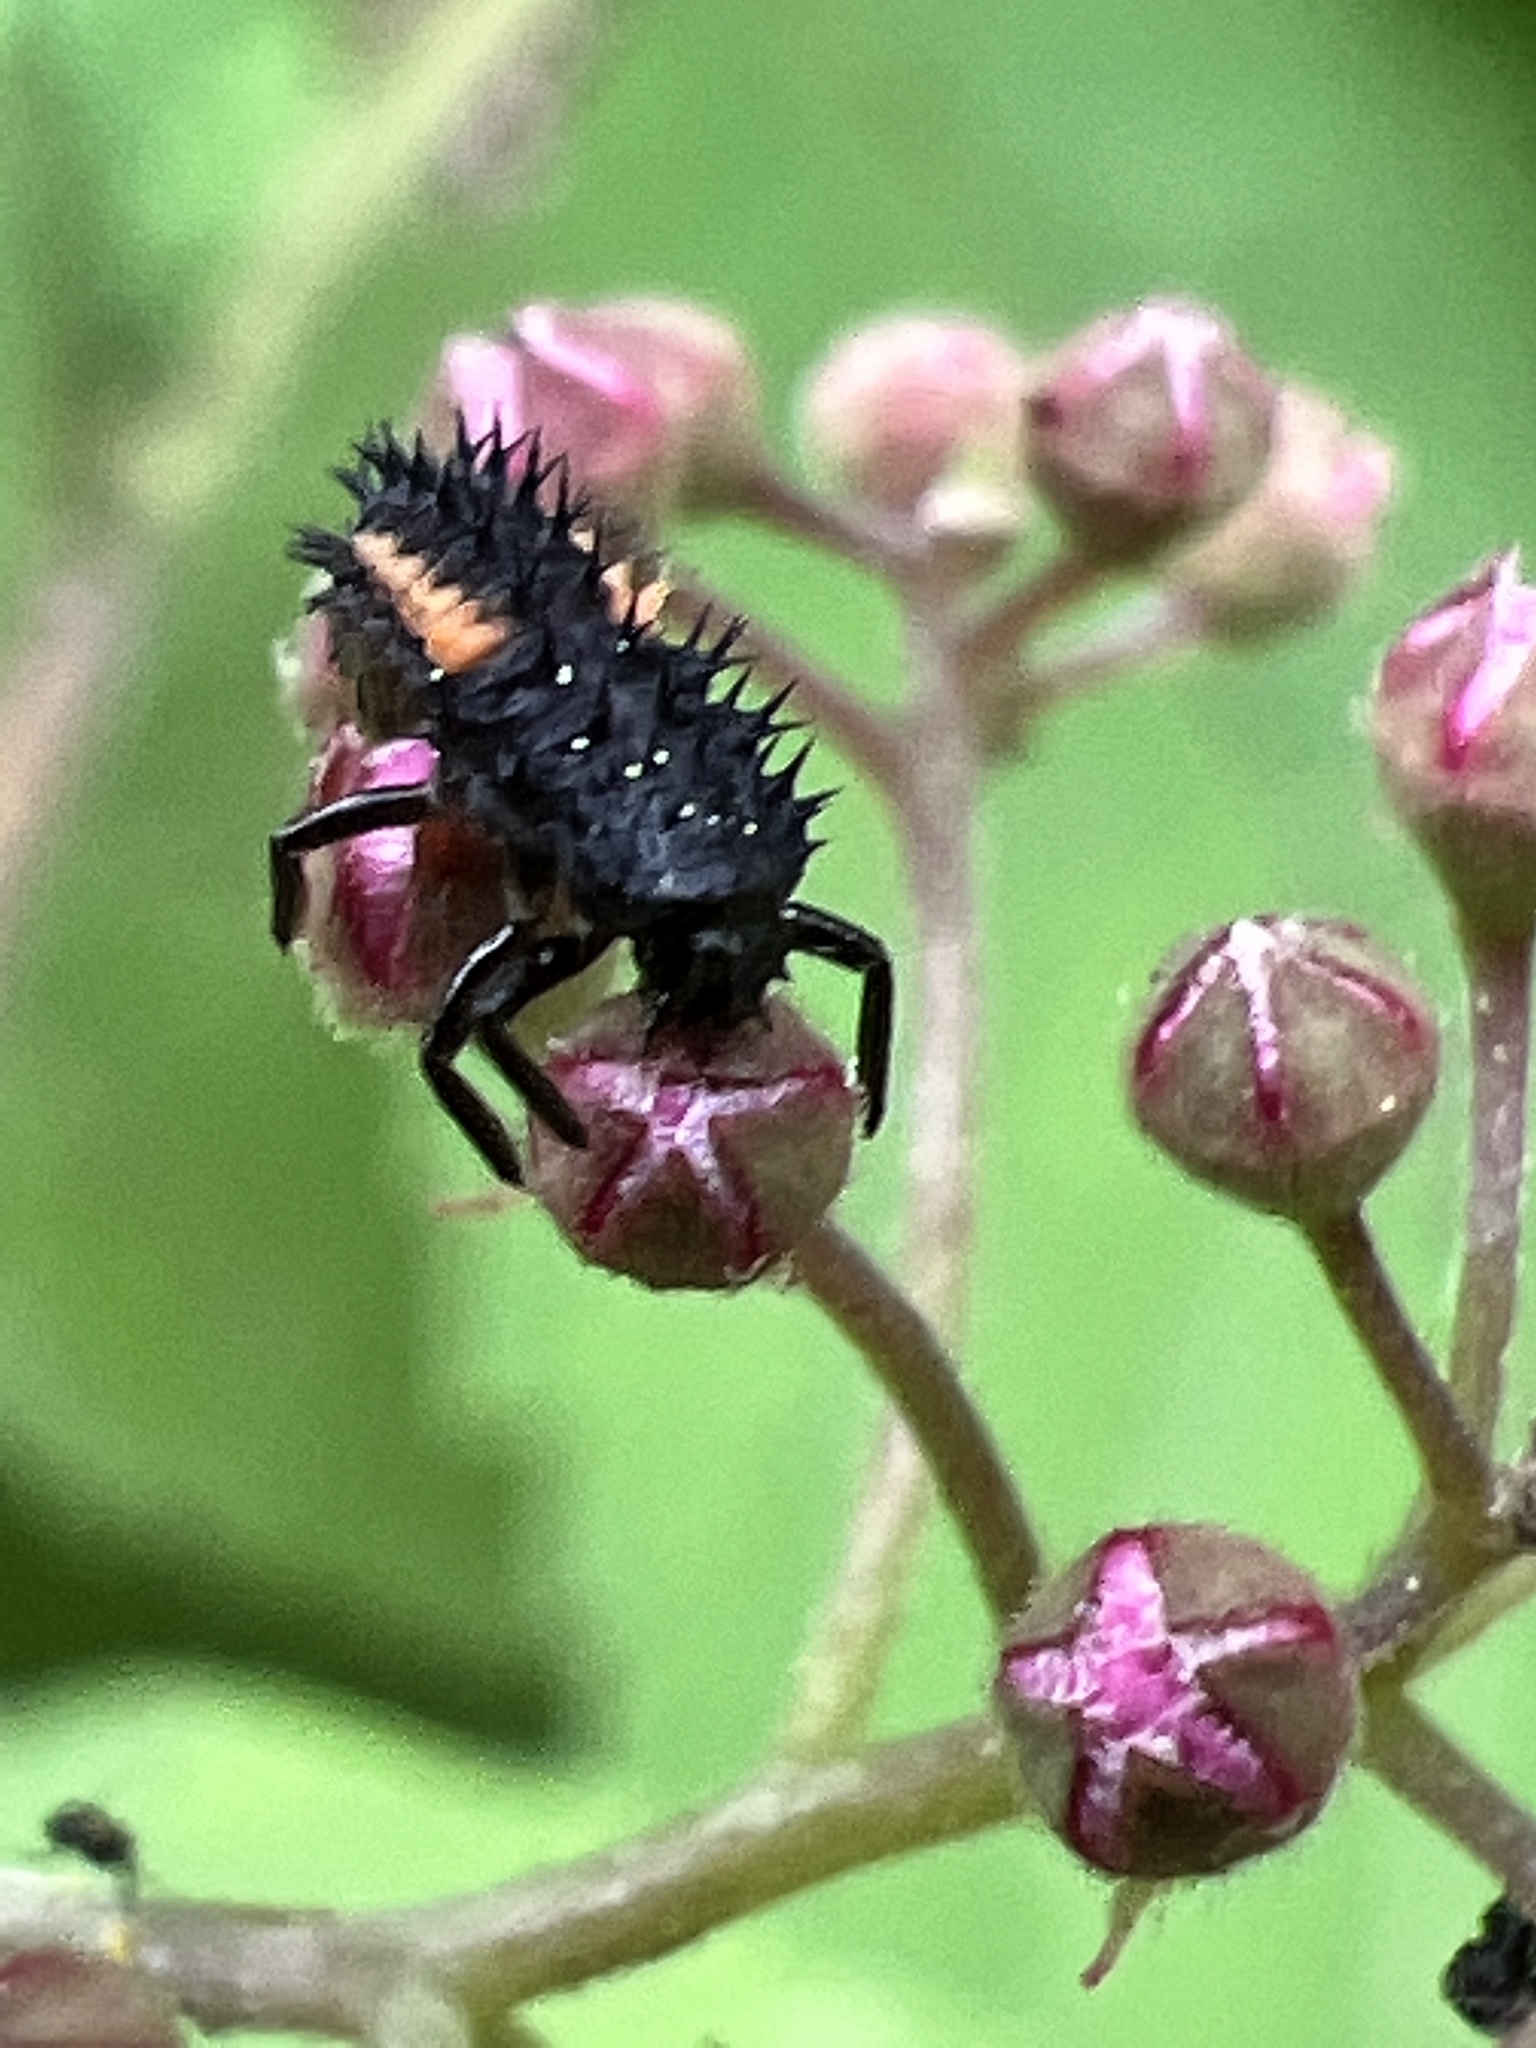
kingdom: Animalia
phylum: Arthropoda
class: Insecta
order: Coleoptera
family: Coccinellidae
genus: Harmonia
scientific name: Harmonia axyridis
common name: Harlequin ladybird
